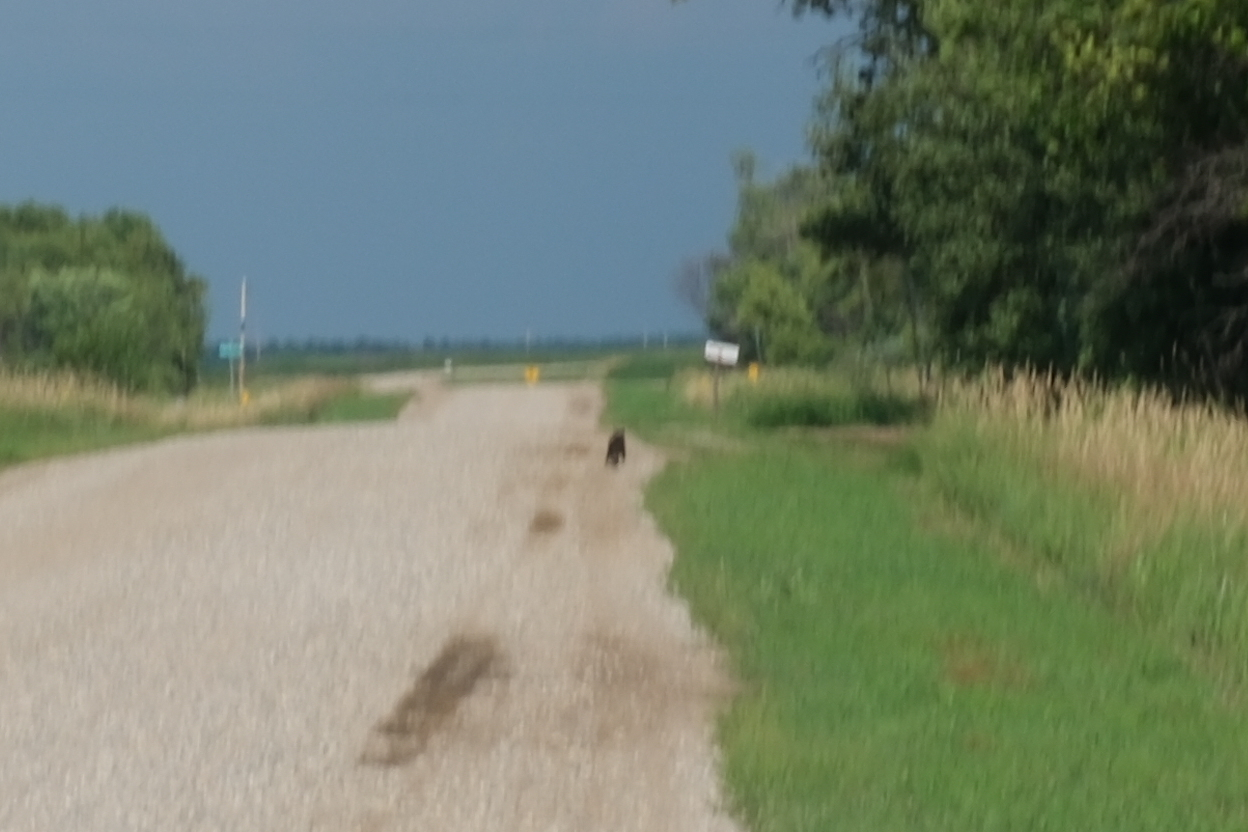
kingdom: Animalia
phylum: Chordata
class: Mammalia
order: Carnivora
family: Ursidae
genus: Ursus
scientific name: Ursus americanus
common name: American black bear
